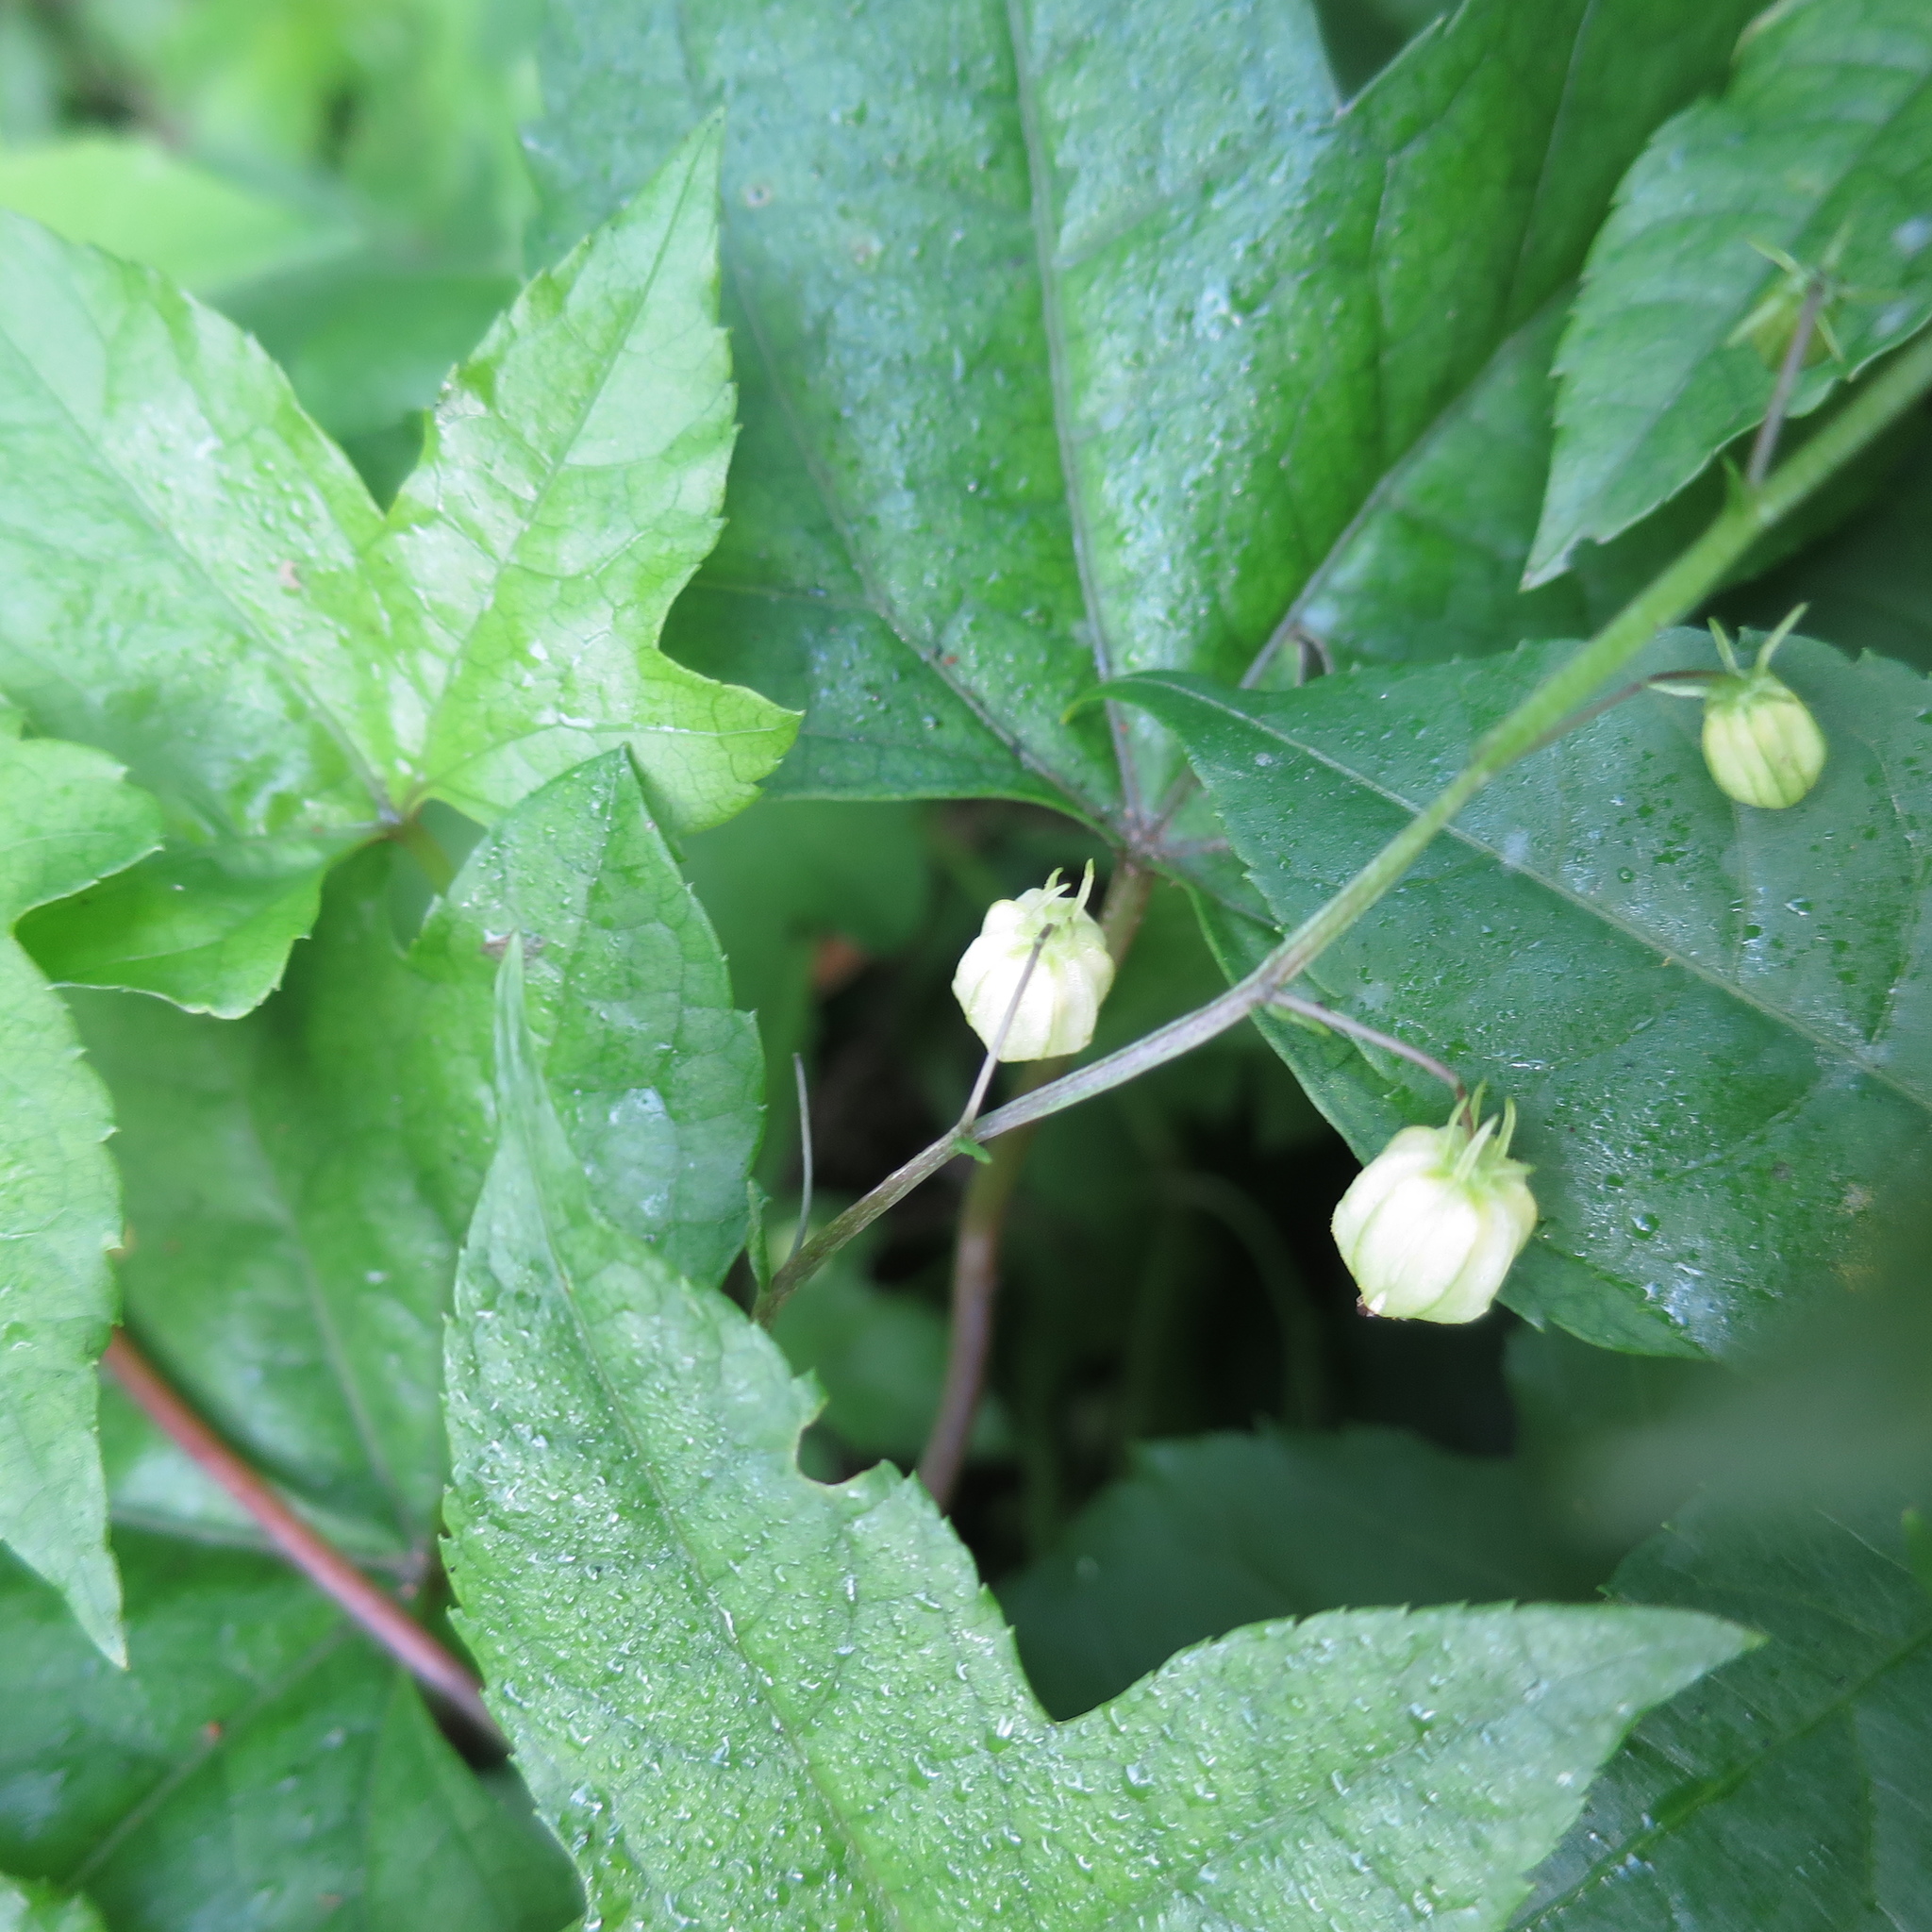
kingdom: Plantae
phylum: Tracheophyta
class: Magnoliopsida
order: Caryophyllales
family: Caryophyllaceae
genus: Silene
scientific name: Silene undulata
